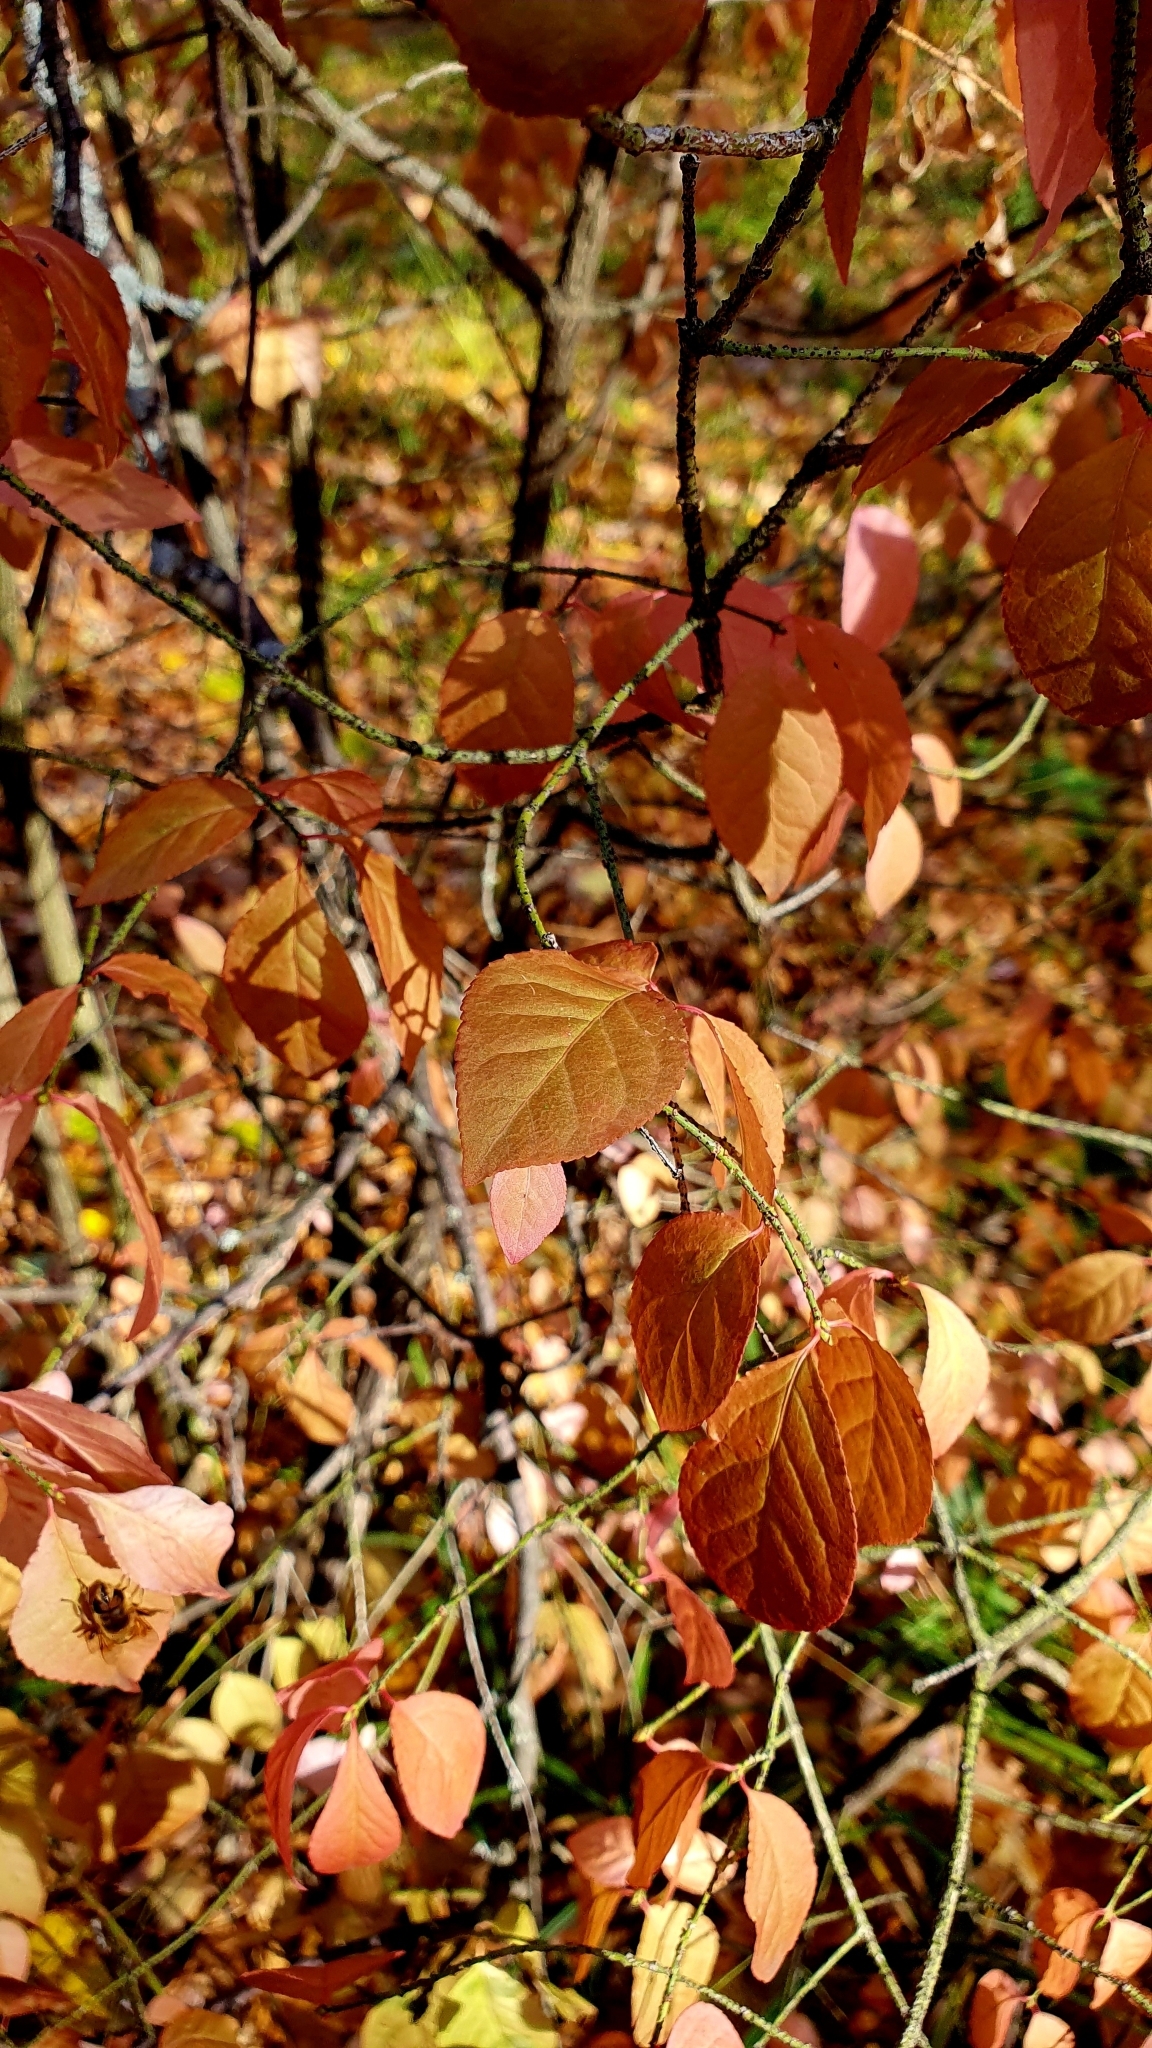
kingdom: Plantae
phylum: Tracheophyta
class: Magnoliopsida
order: Celastrales
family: Celastraceae
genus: Euonymus
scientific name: Euonymus verrucosus
